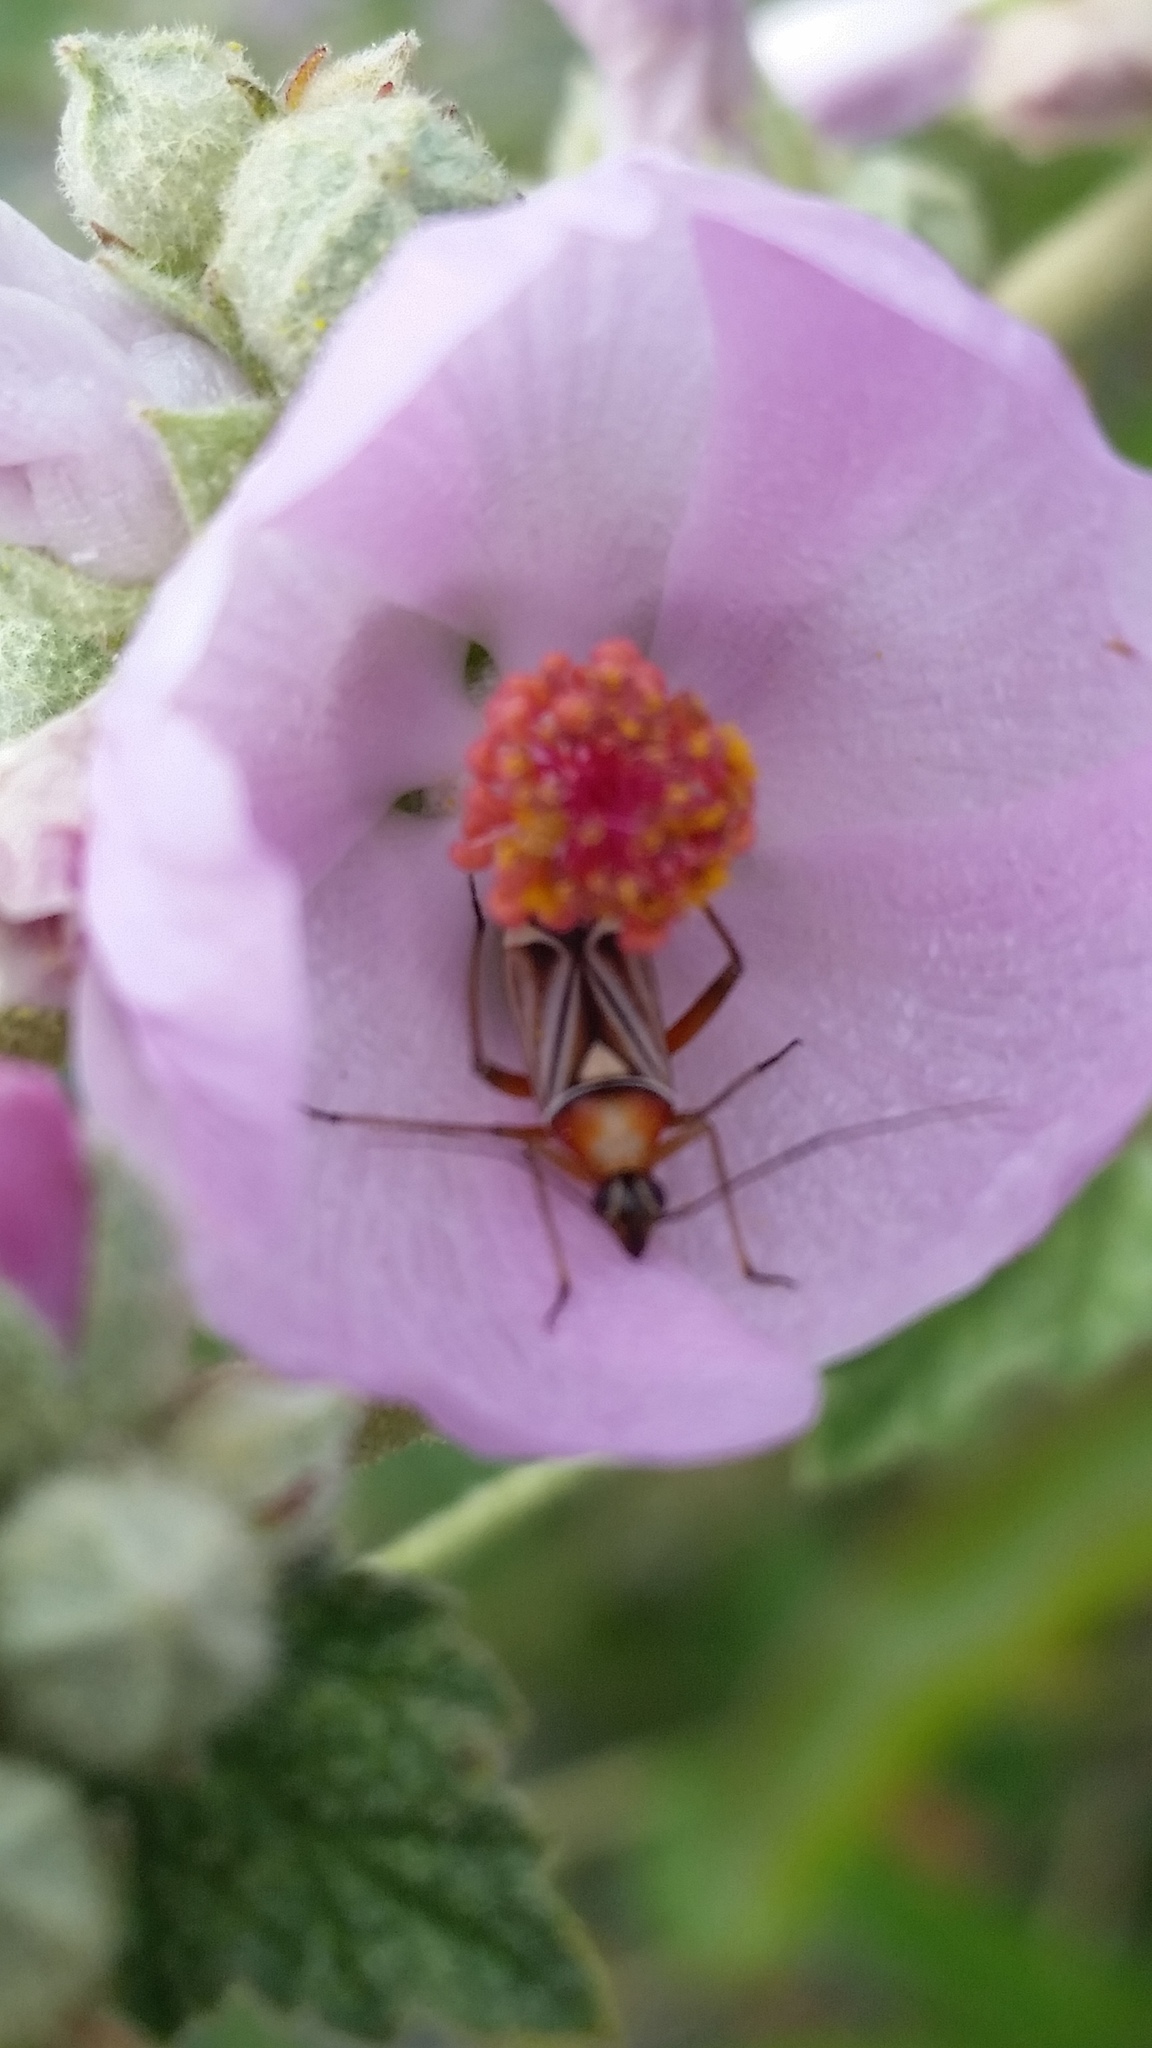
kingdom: Animalia
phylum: Arthropoda
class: Insecta
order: Hemiptera
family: Miridae
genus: Closterocoris
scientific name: Closterocoris amoenus
